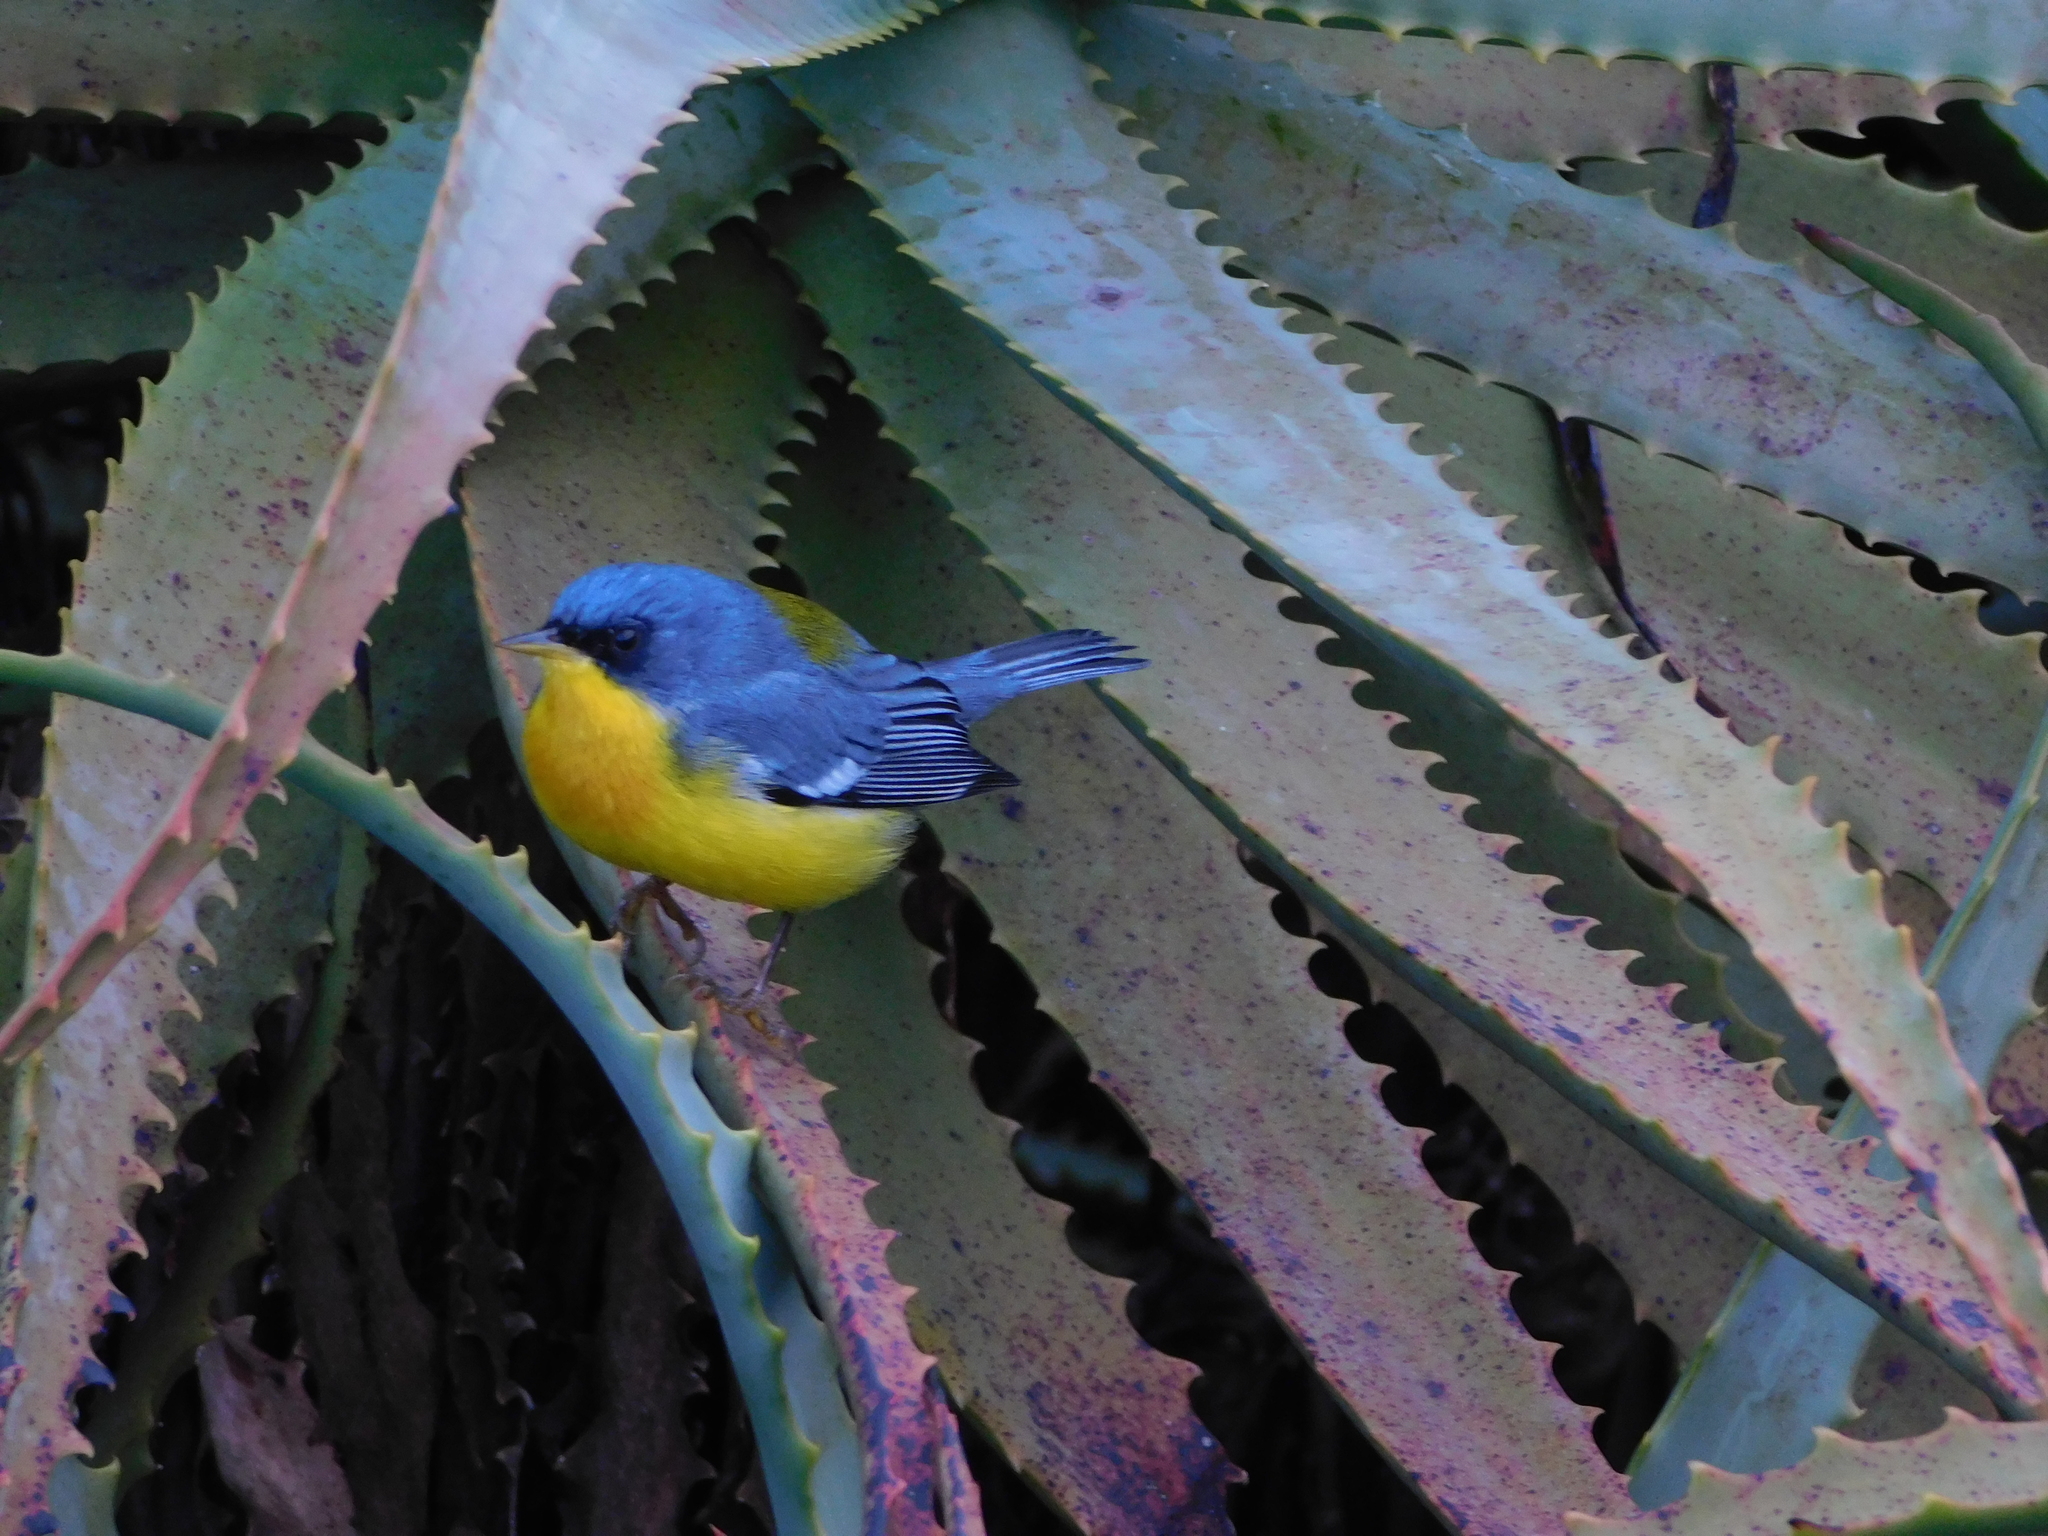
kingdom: Animalia
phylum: Chordata
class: Aves
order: Passeriformes
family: Parulidae
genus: Setophaga
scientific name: Setophaga pitiayumi
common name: Tropical parula
